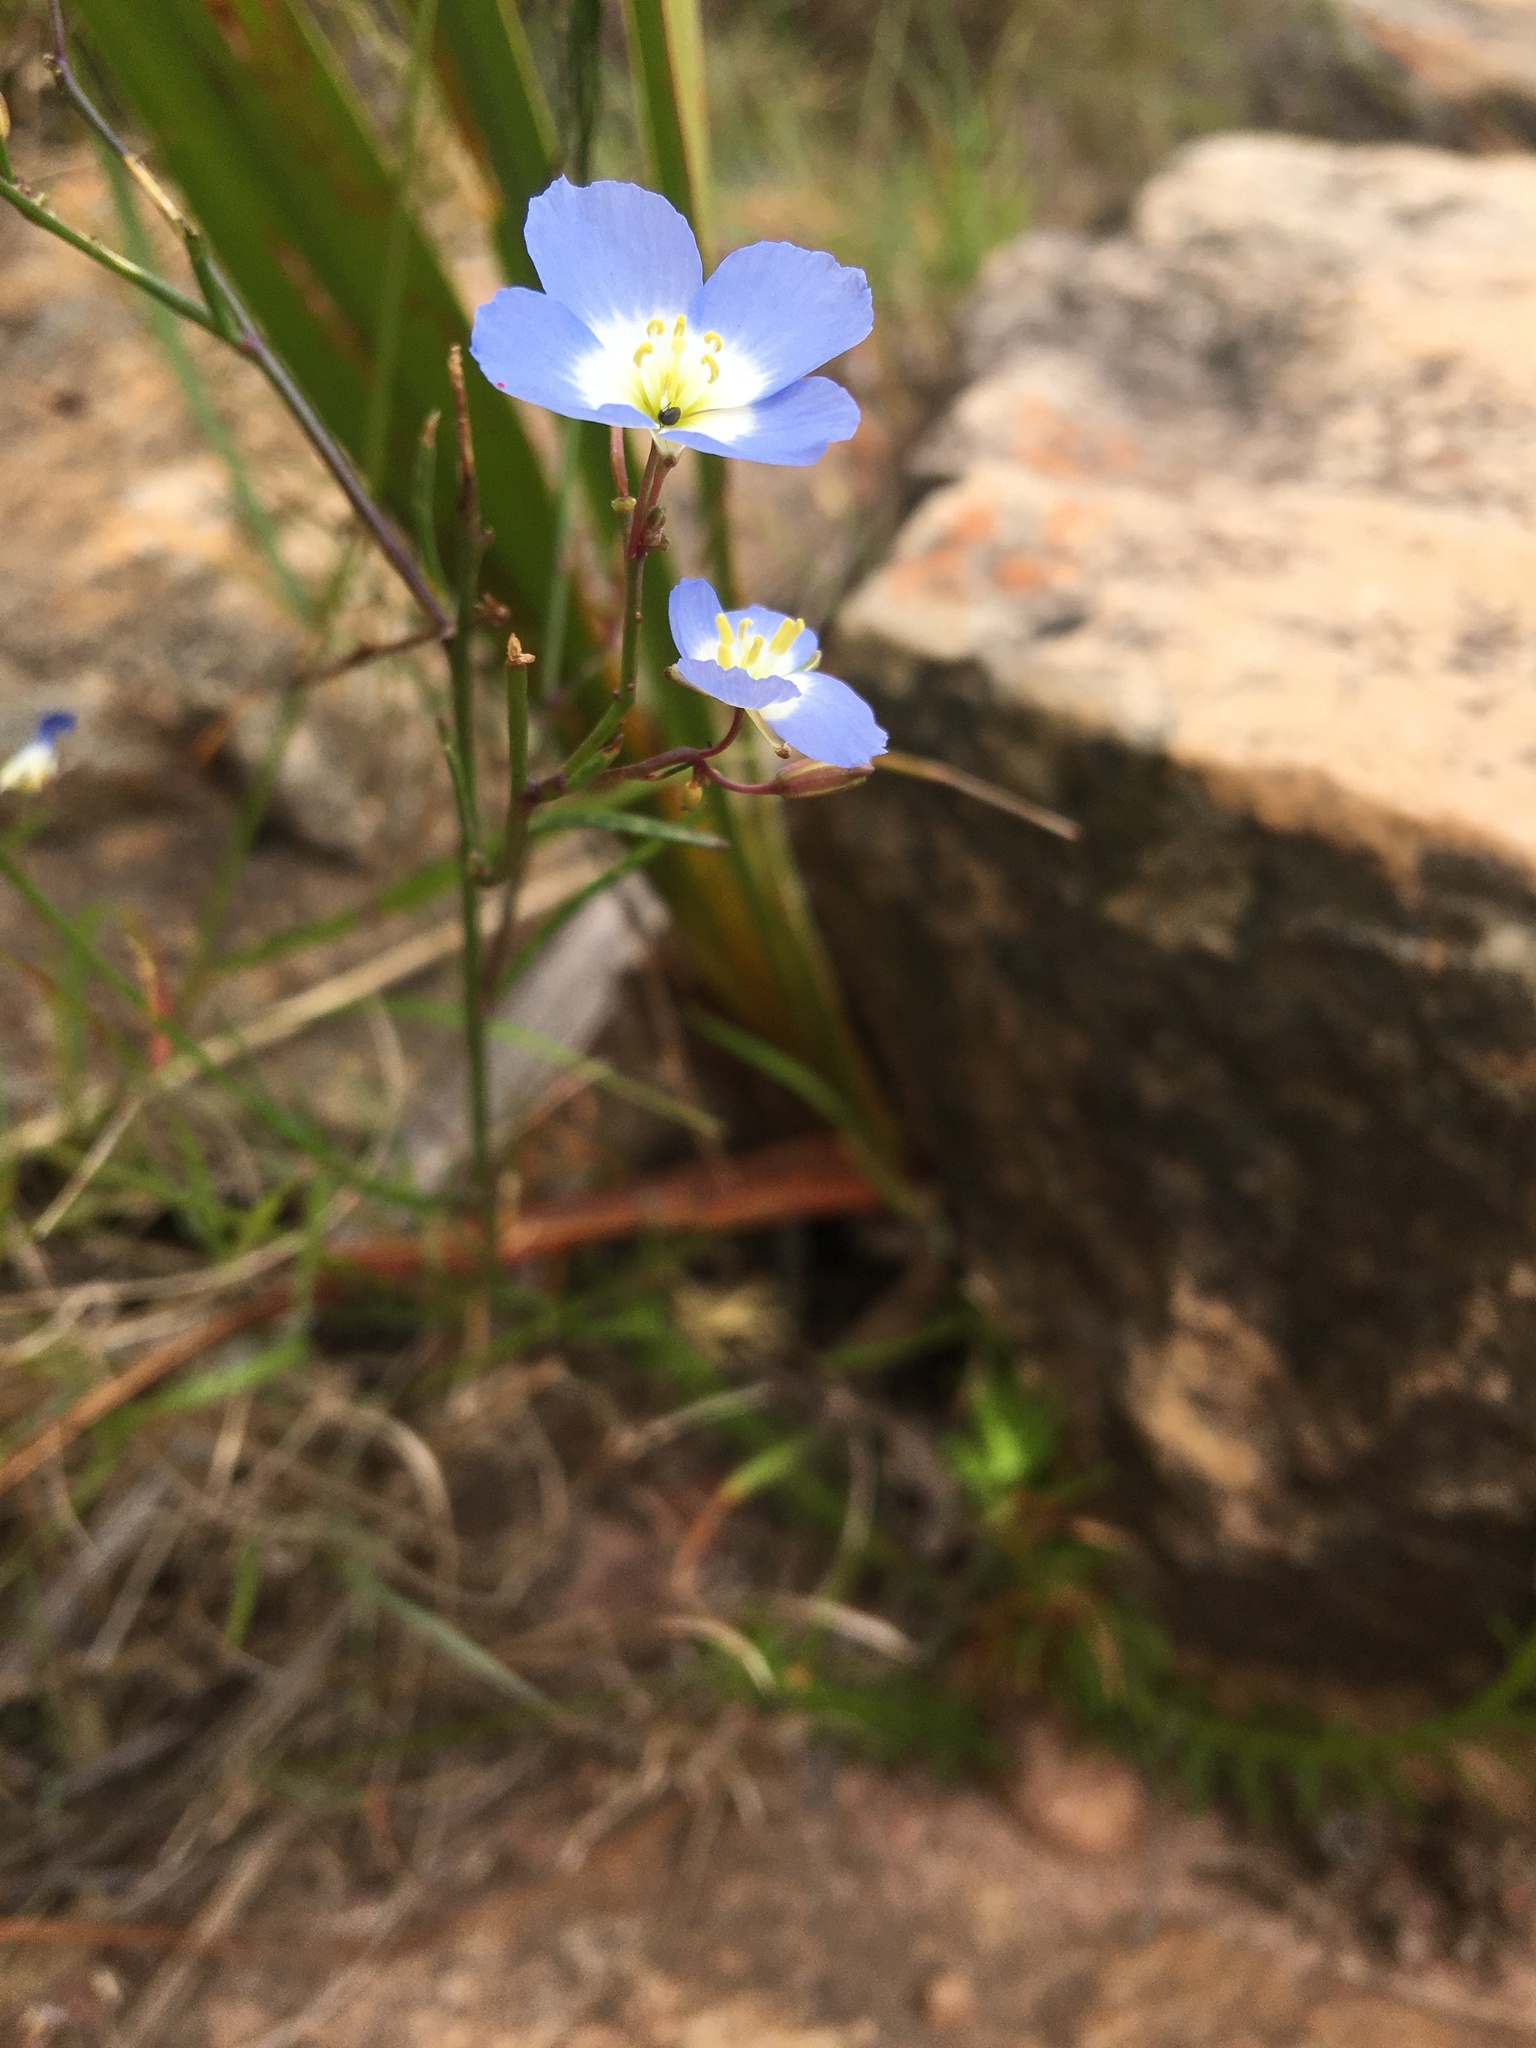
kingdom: Plantae
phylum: Tracheophyta
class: Magnoliopsida
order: Brassicales
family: Brassicaceae
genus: Heliophila
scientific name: Heliophila coronopifolia
